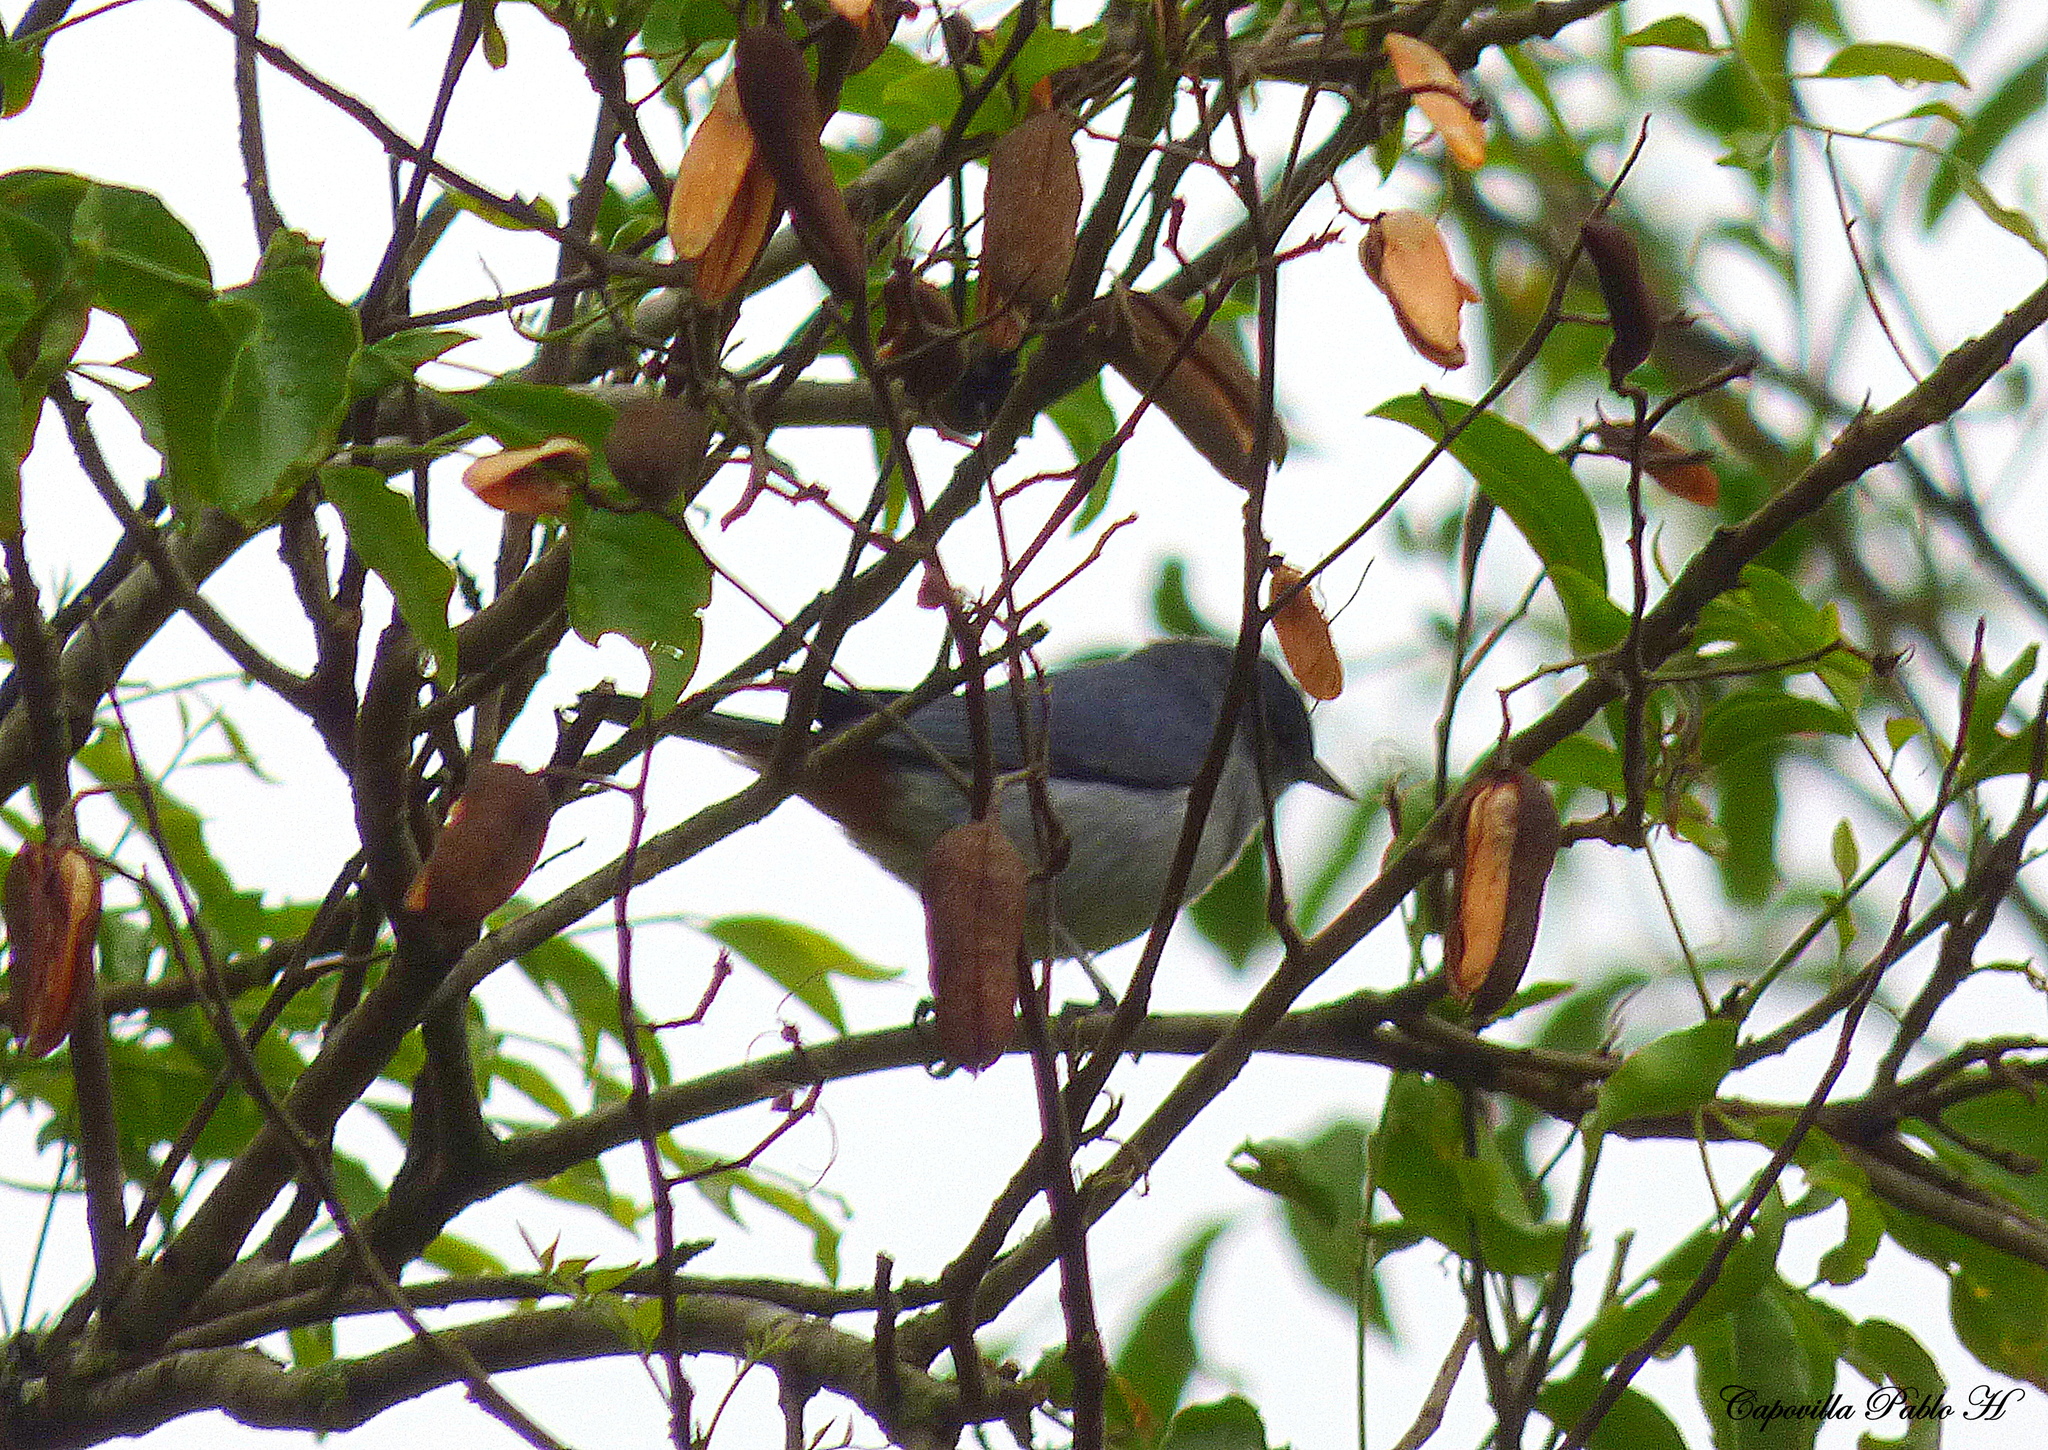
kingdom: Animalia
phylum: Chordata
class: Aves
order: Passeriformes
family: Thraupidae
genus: Conirostrum
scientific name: Conirostrum speciosum
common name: Chestnut-vented conebill
